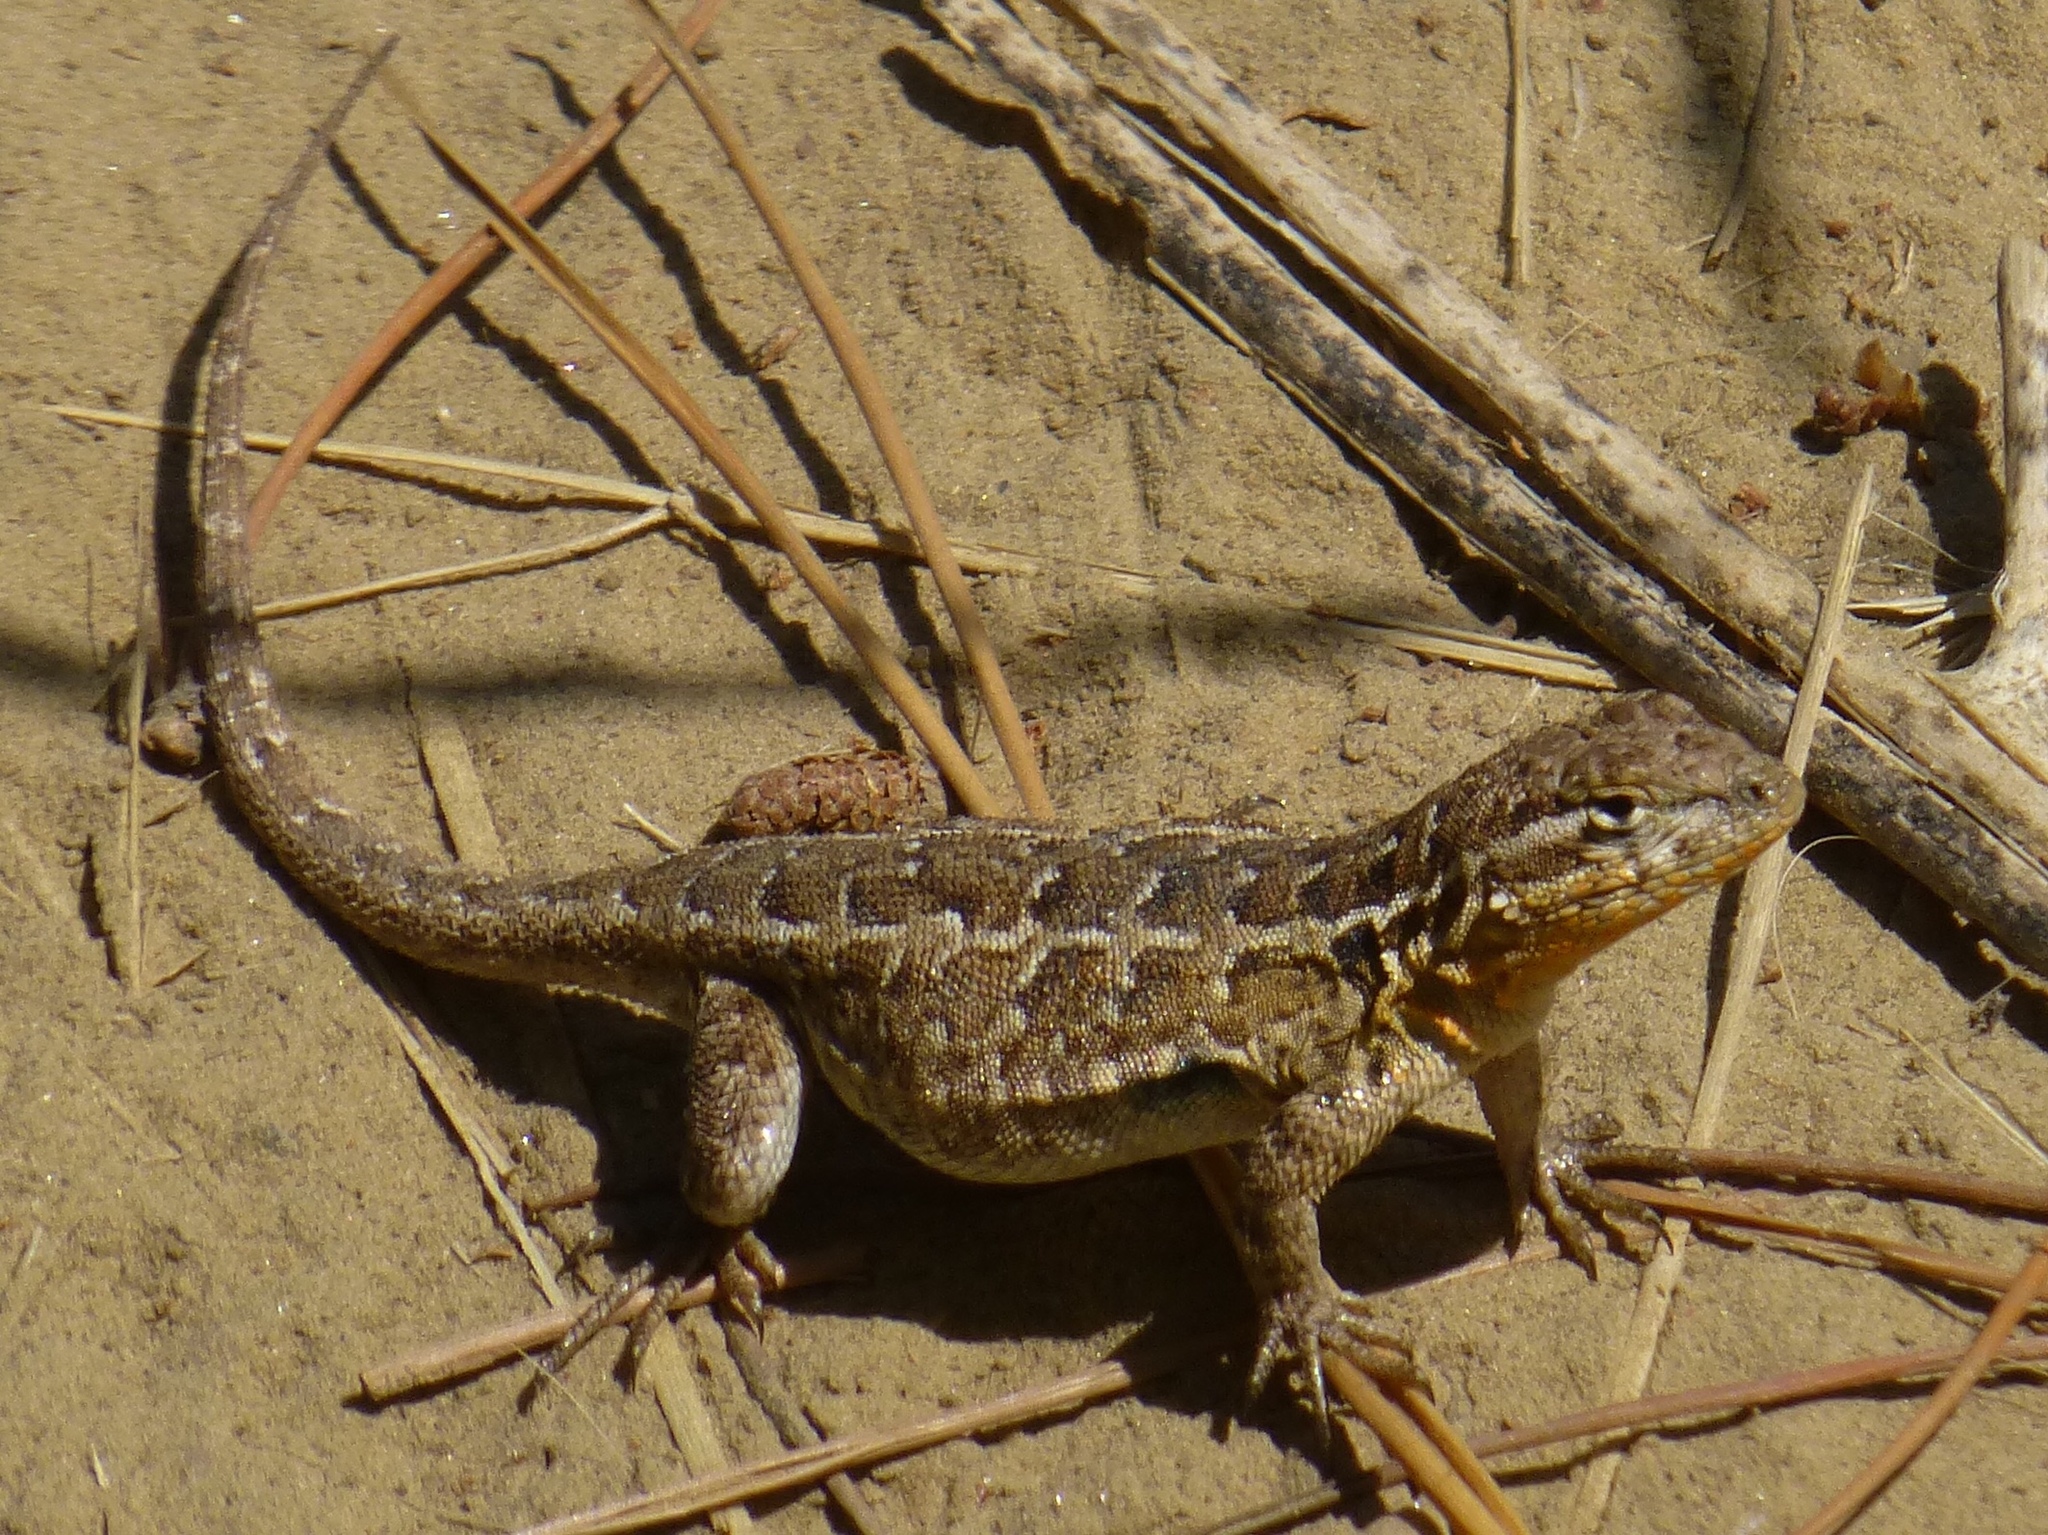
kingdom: Animalia
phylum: Chordata
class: Squamata
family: Phrynosomatidae
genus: Uta
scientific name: Uta stansburiana
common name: Side-blotched lizard
